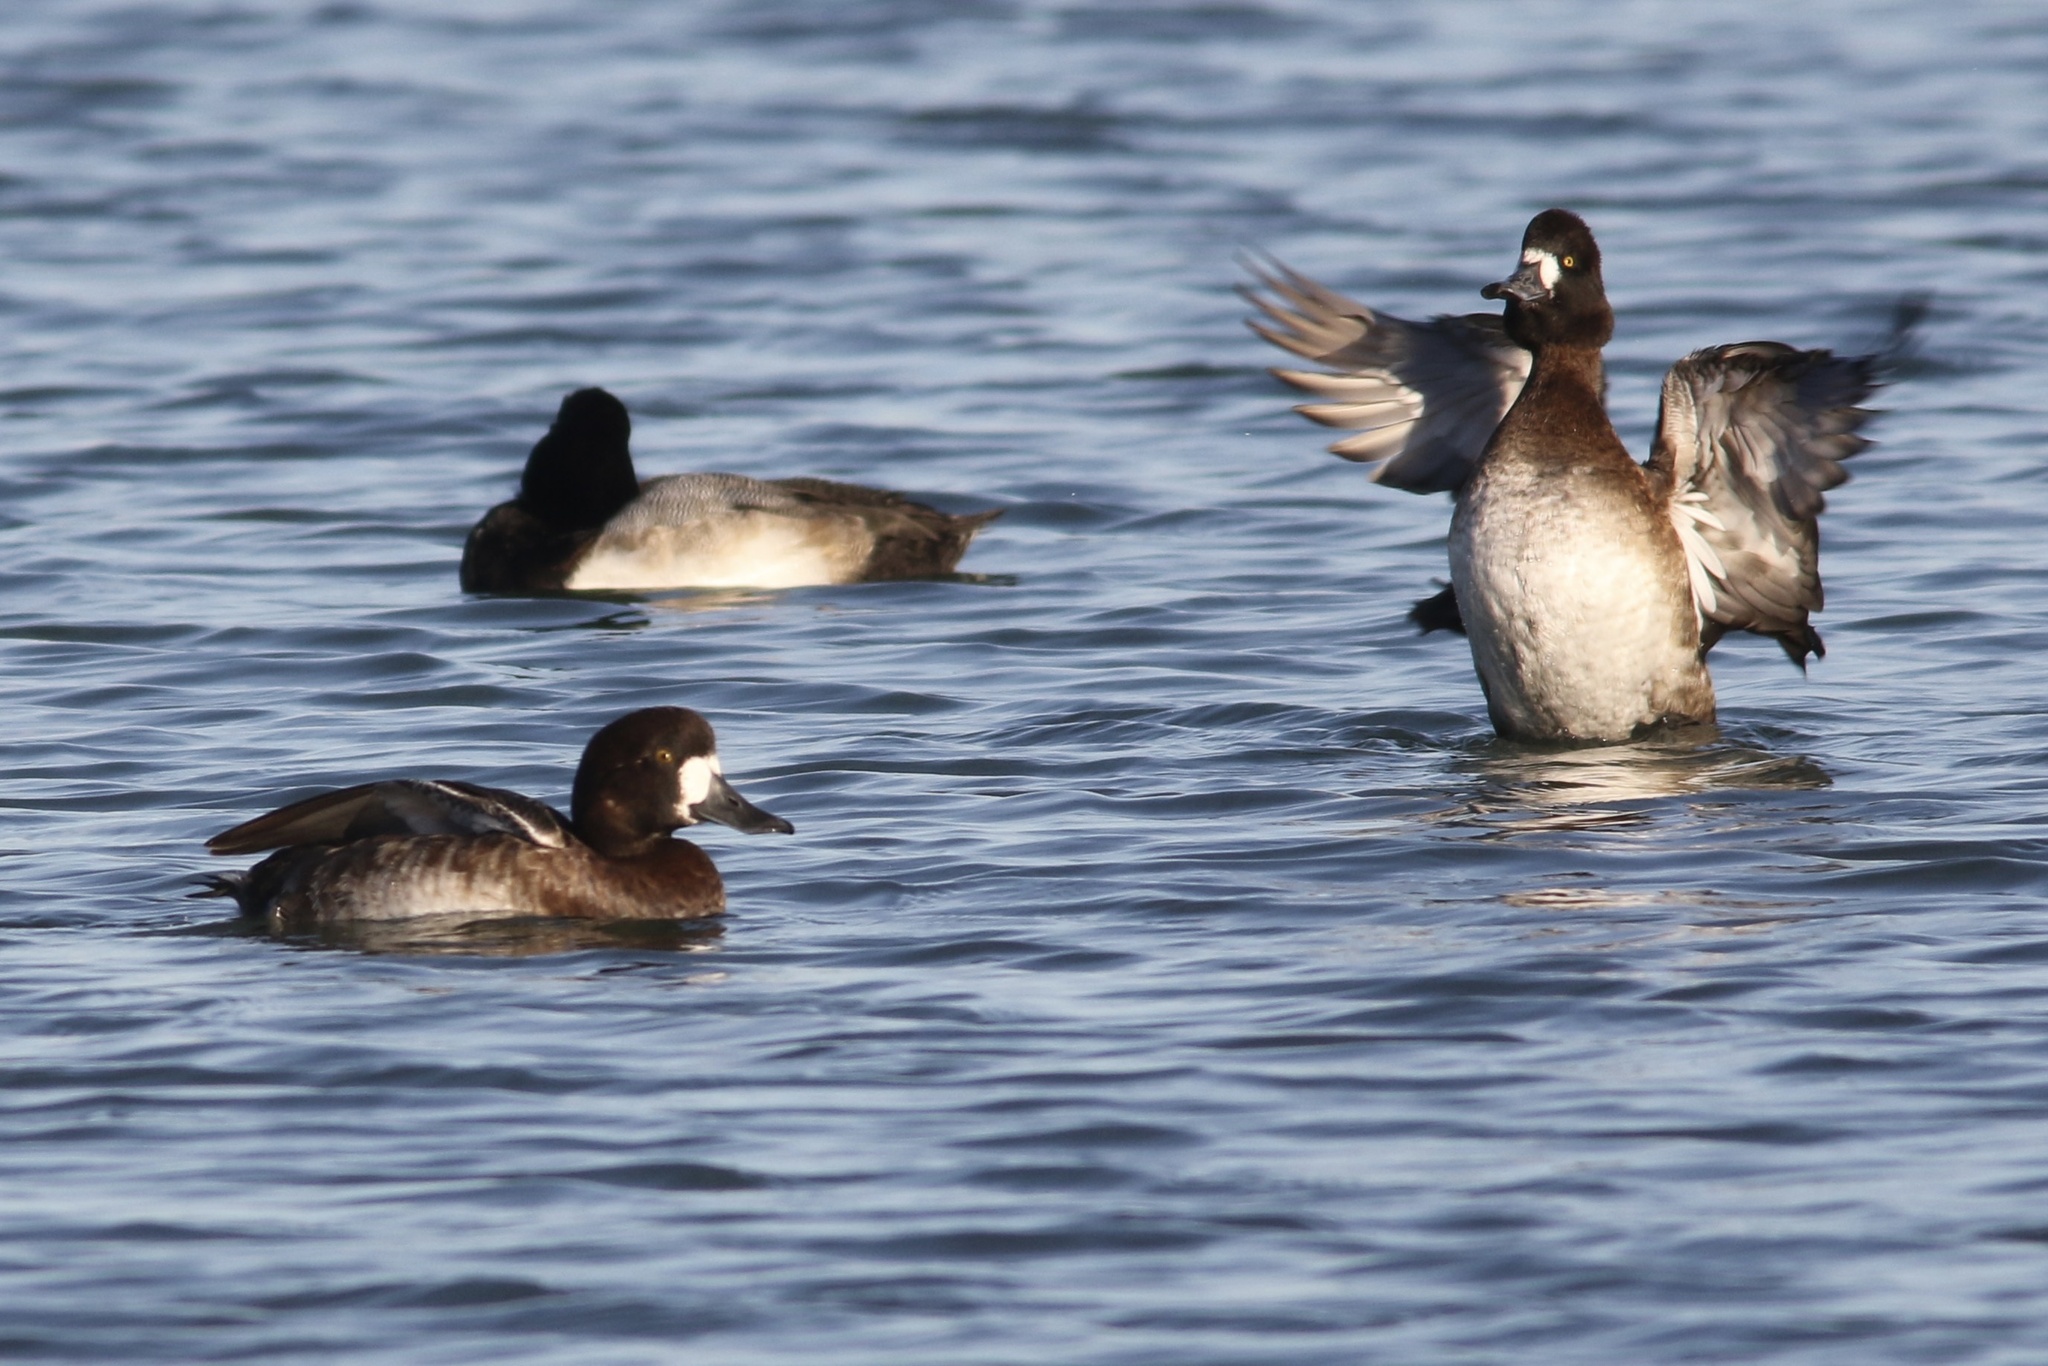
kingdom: Animalia
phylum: Chordata
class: Aves
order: Anseriformes
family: Anatidae
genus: Aythya
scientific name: Aythya marila
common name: Greater scaup
